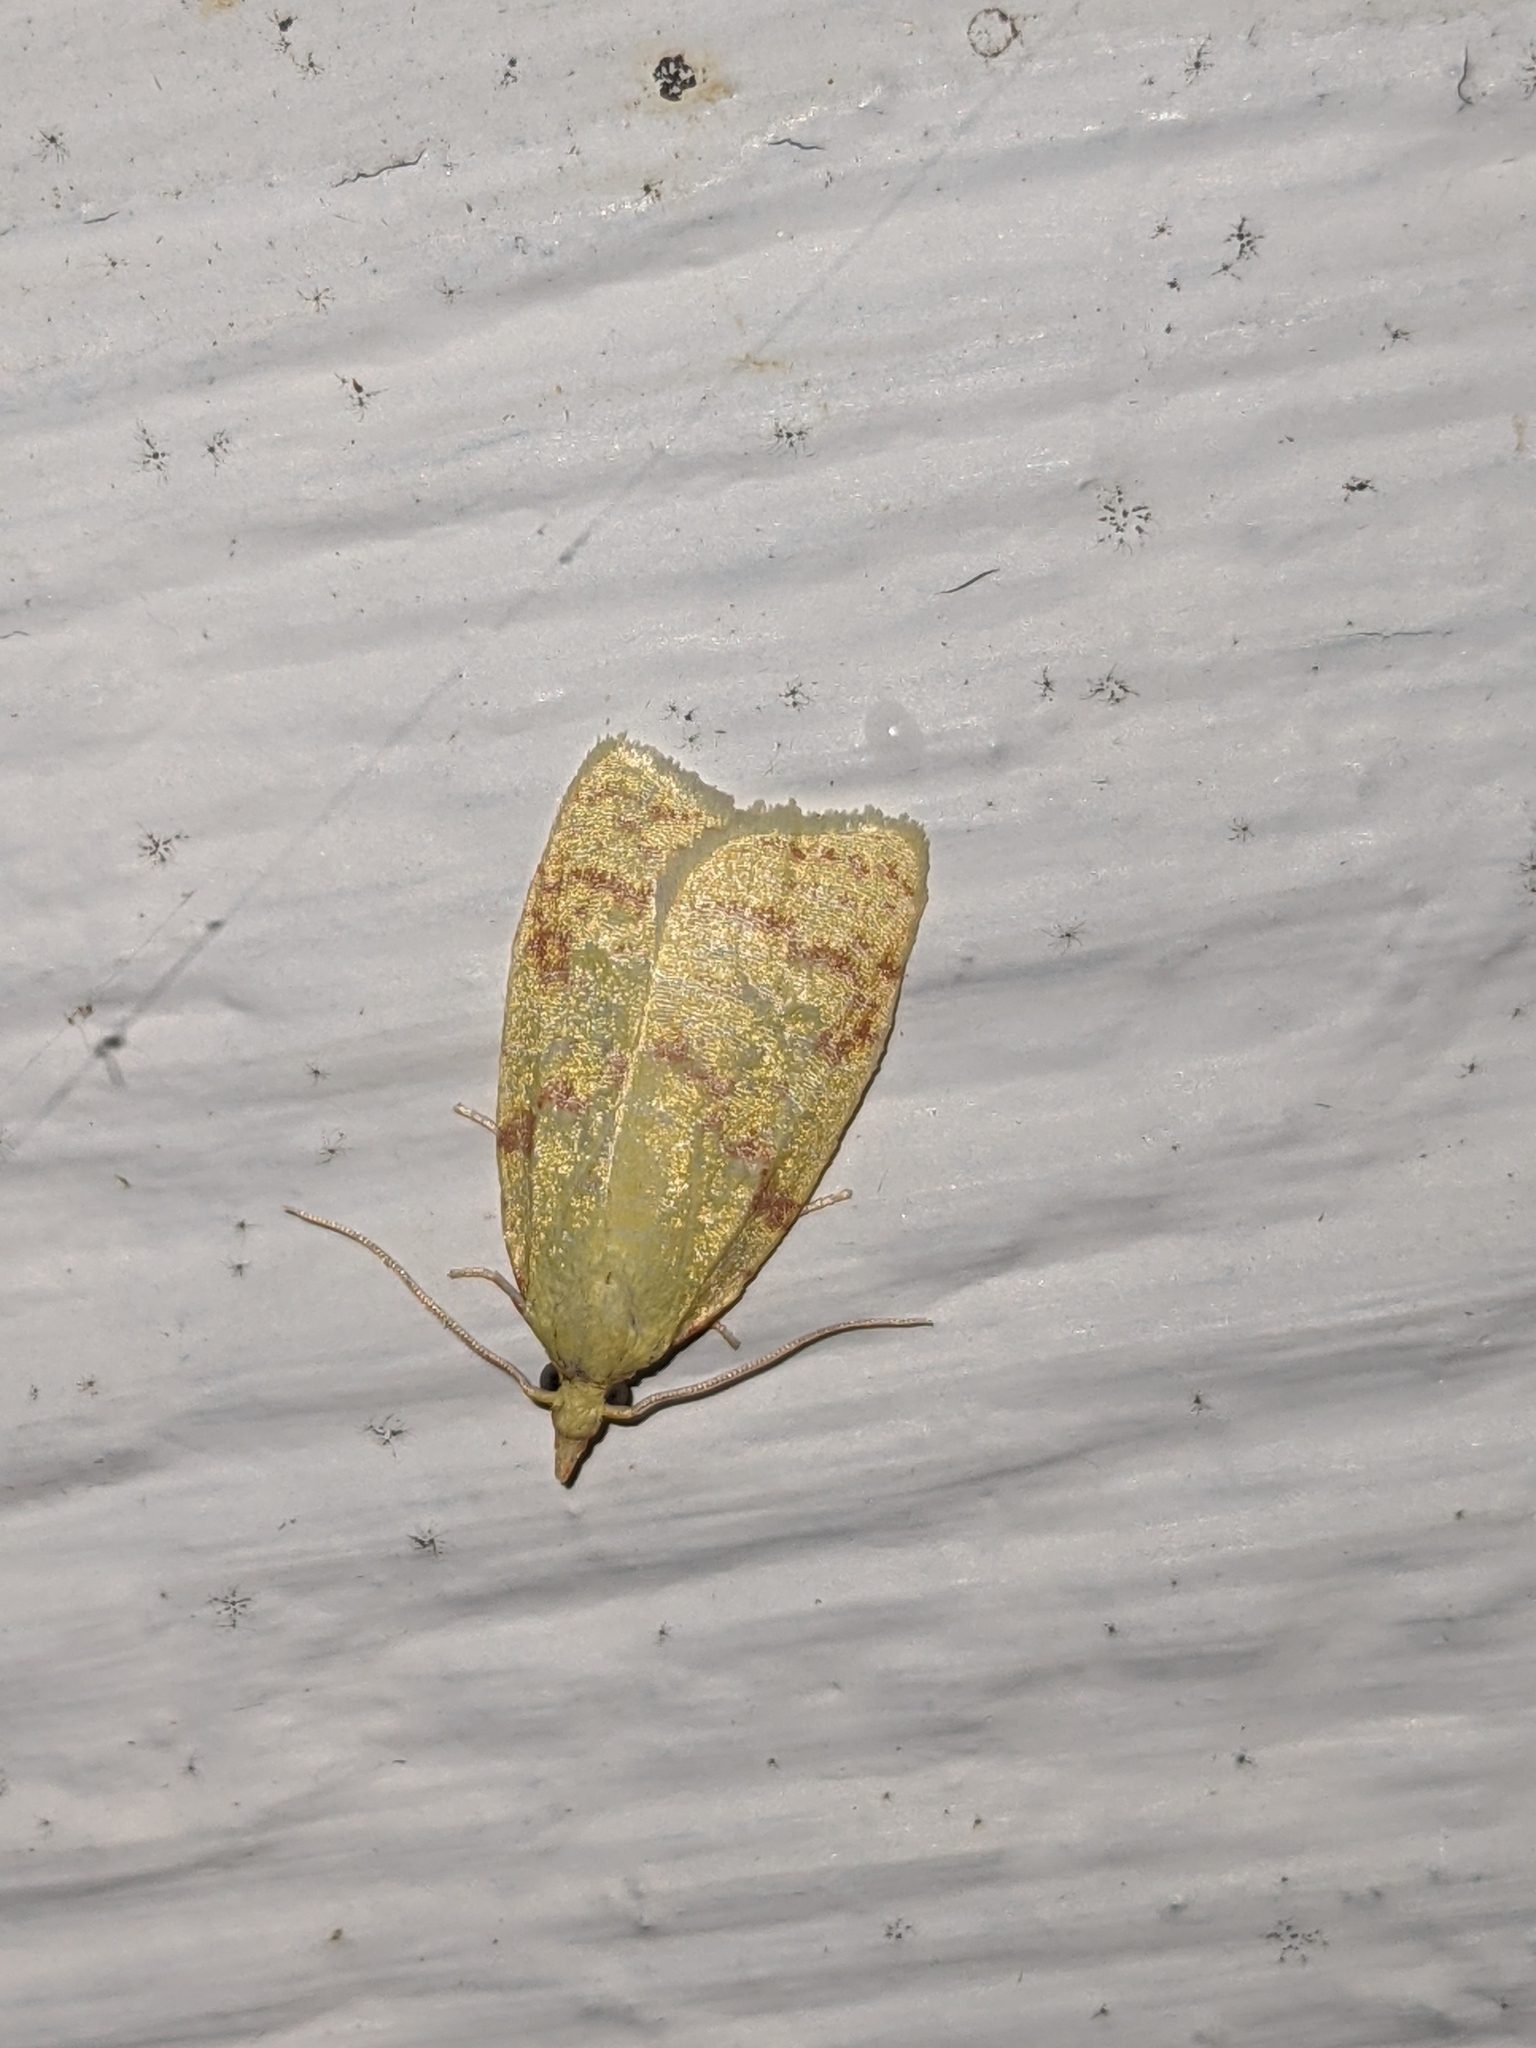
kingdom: Animalia
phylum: Arthropoda
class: Insecta
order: Lepidoptera
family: Tortricidae
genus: Cenopis
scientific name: Cenopis pettitana
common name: Maple-basswood leafroller moth
